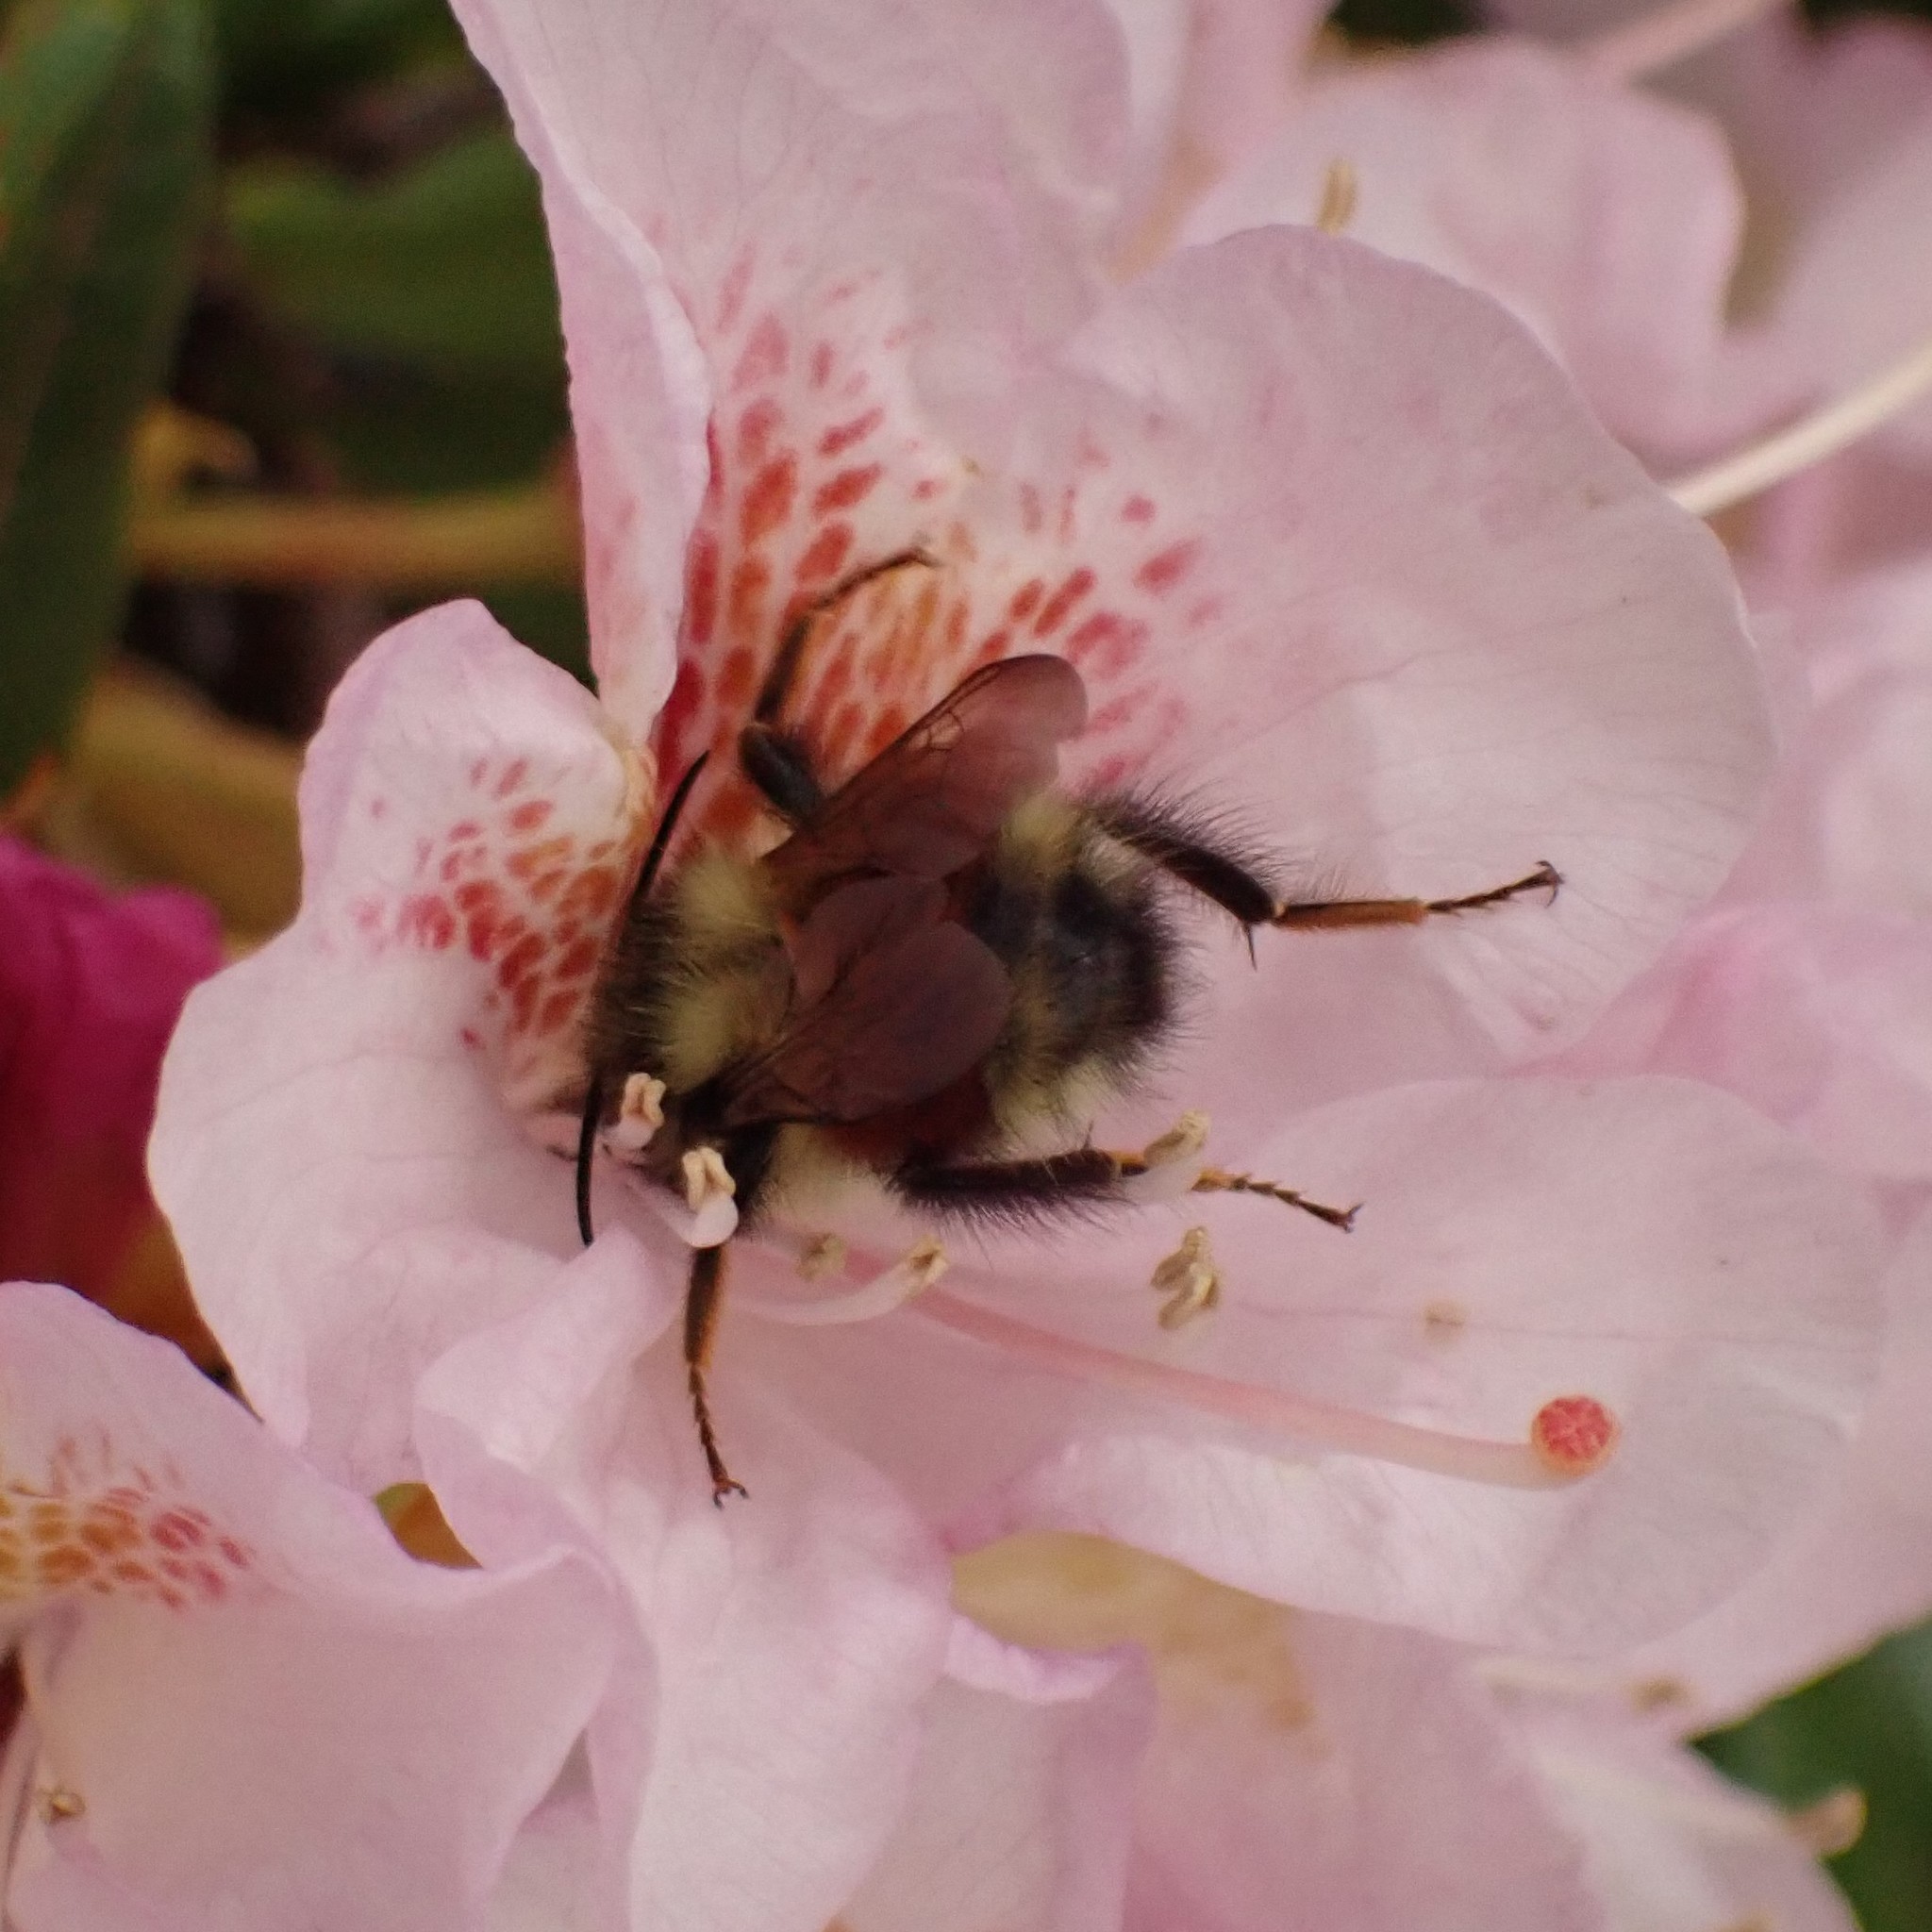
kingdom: Animalia
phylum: Arthropoda
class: Insecta
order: Hymenoptera
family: Apidae
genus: Bombus
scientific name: Bombus melanopygus
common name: Black tail bumble bee
